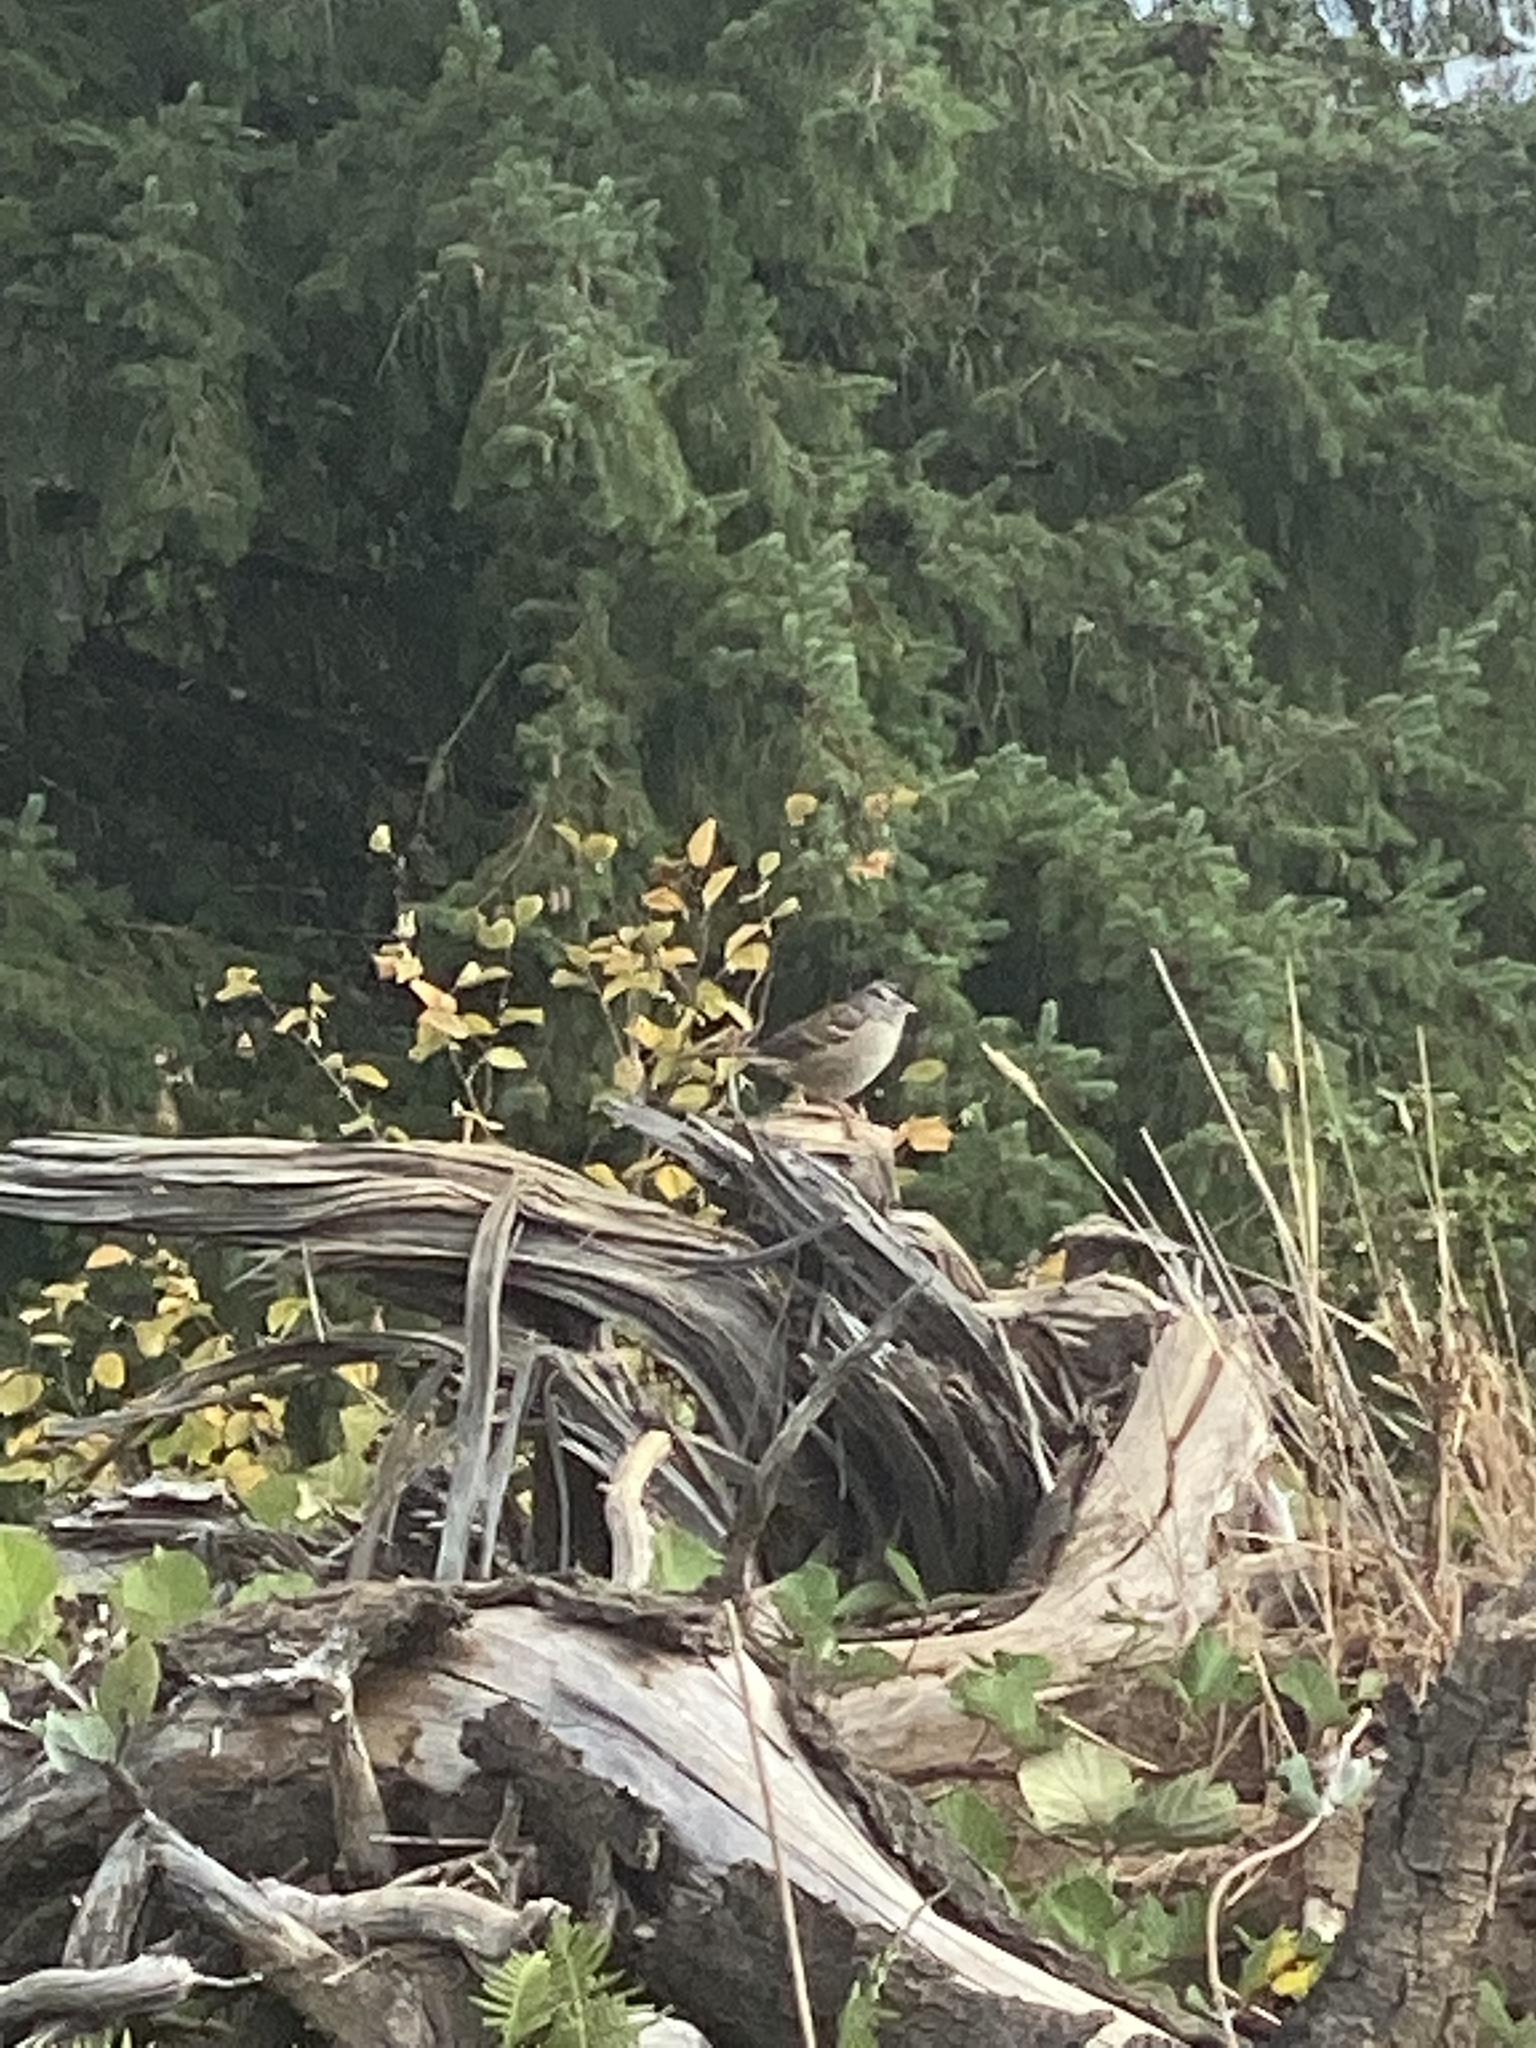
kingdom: Animalia
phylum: Chordata
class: Aves
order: Passeriformes
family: Passerellidae
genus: Zonotrichia
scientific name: Zonotrichia leucophrys
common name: White-crowned sparrow
